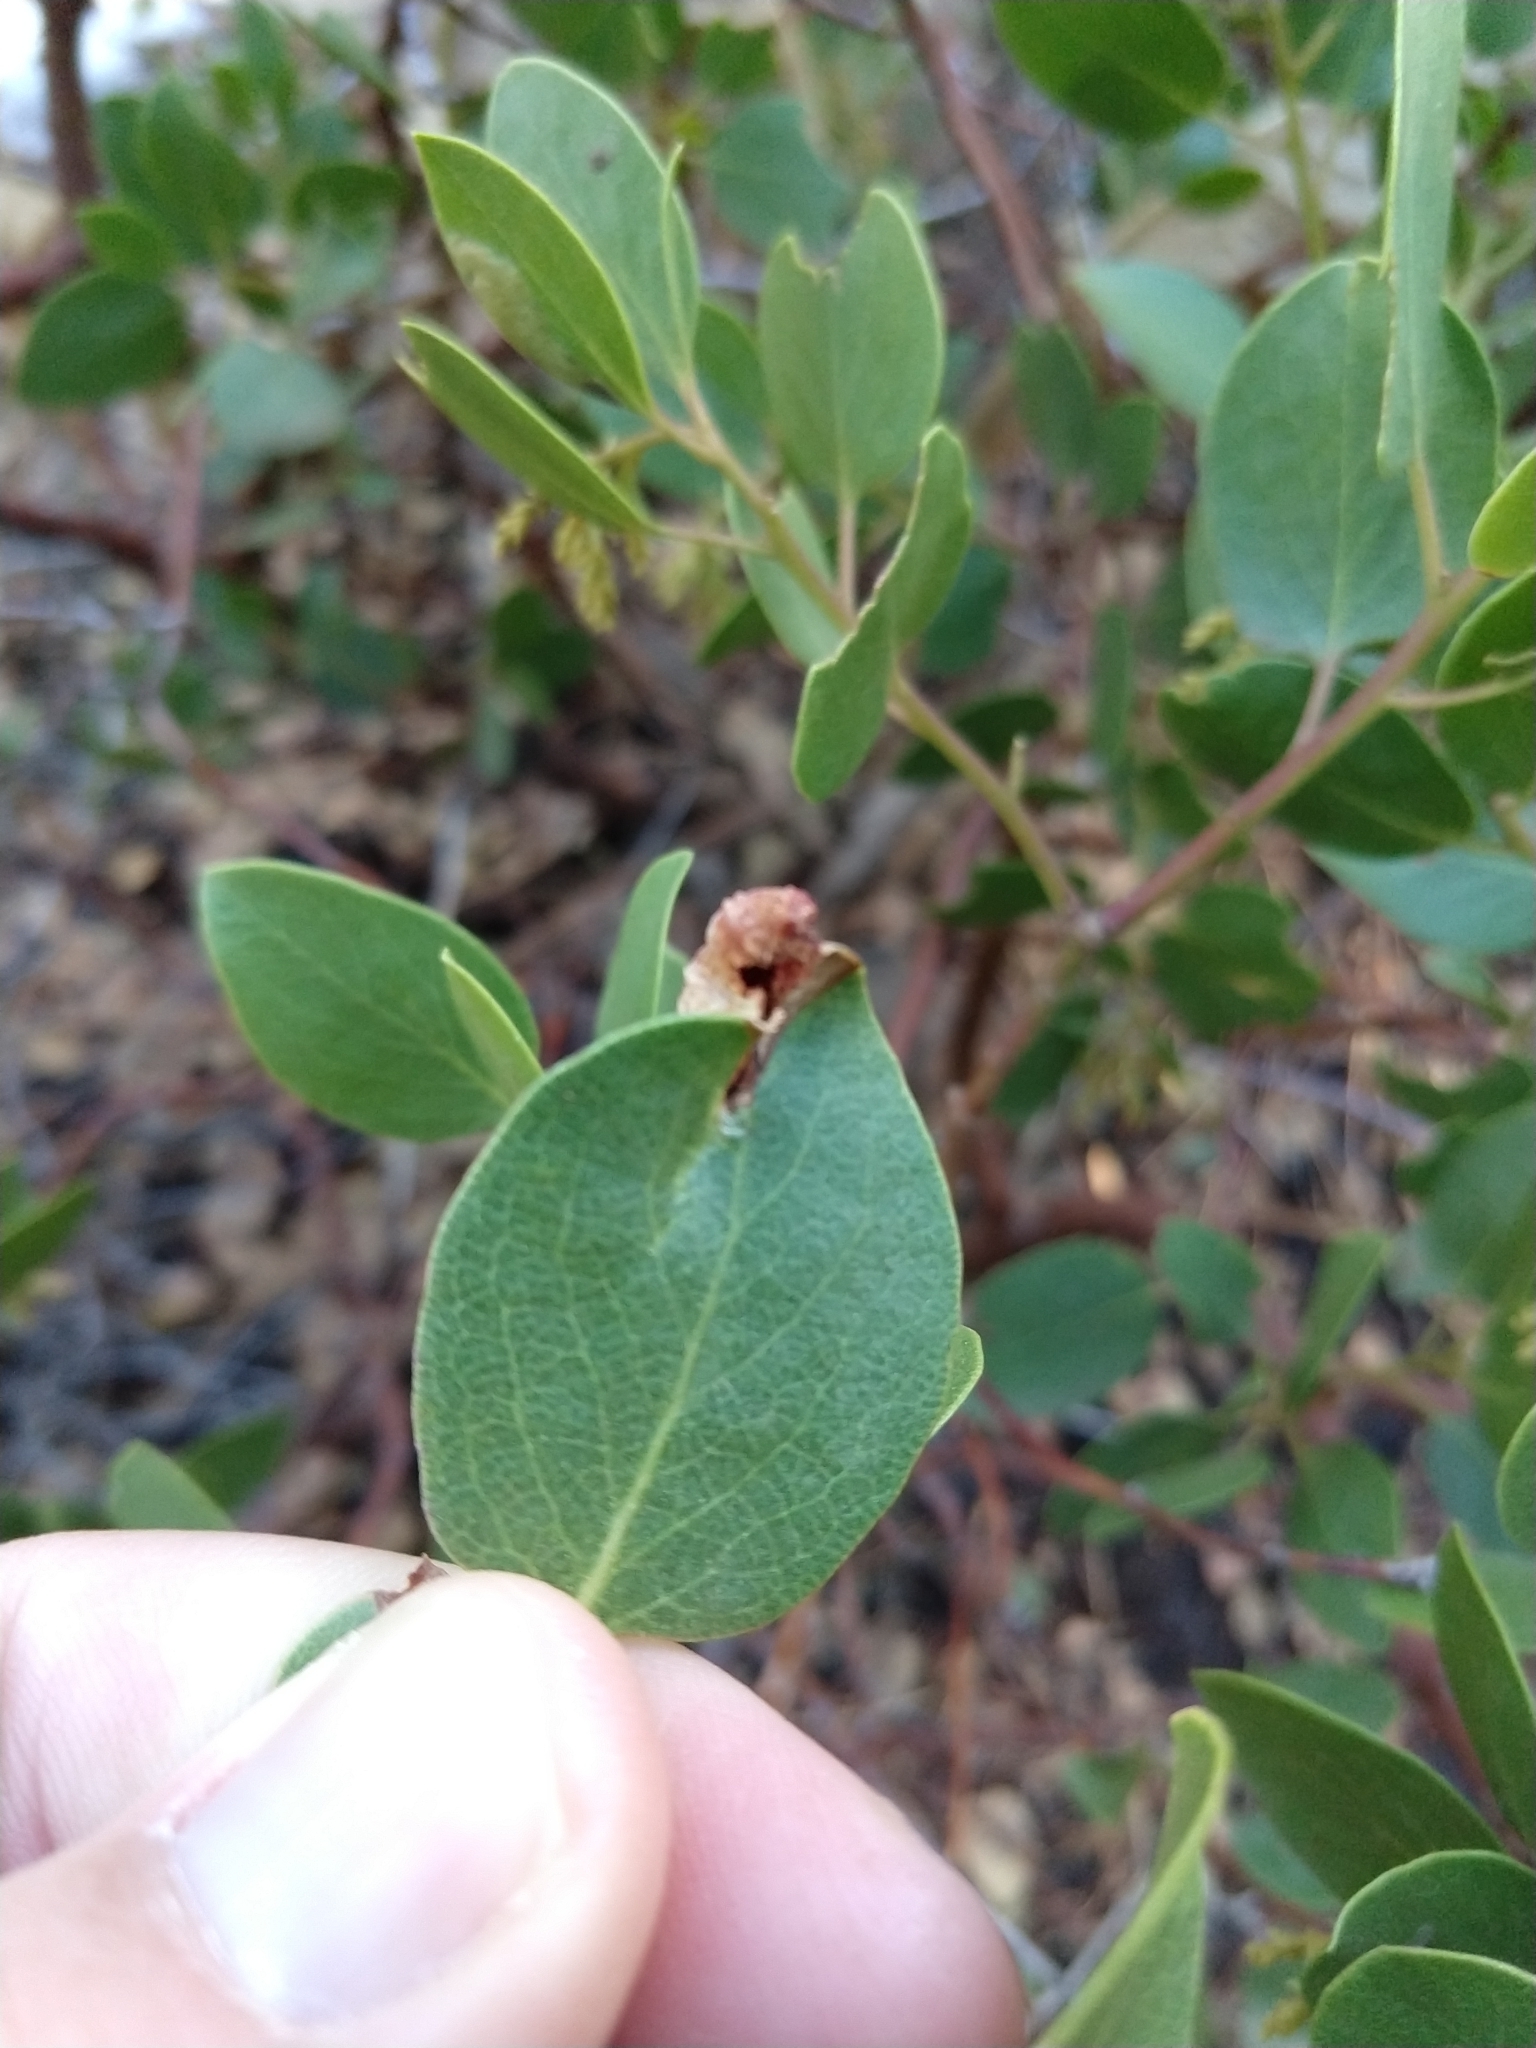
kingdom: Animalia
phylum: Arthropoda
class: Insecta
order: Hemiptera
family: Aphididae
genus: Tamalia
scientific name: Tamalia coweni
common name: Manzanita leafgall aphid
